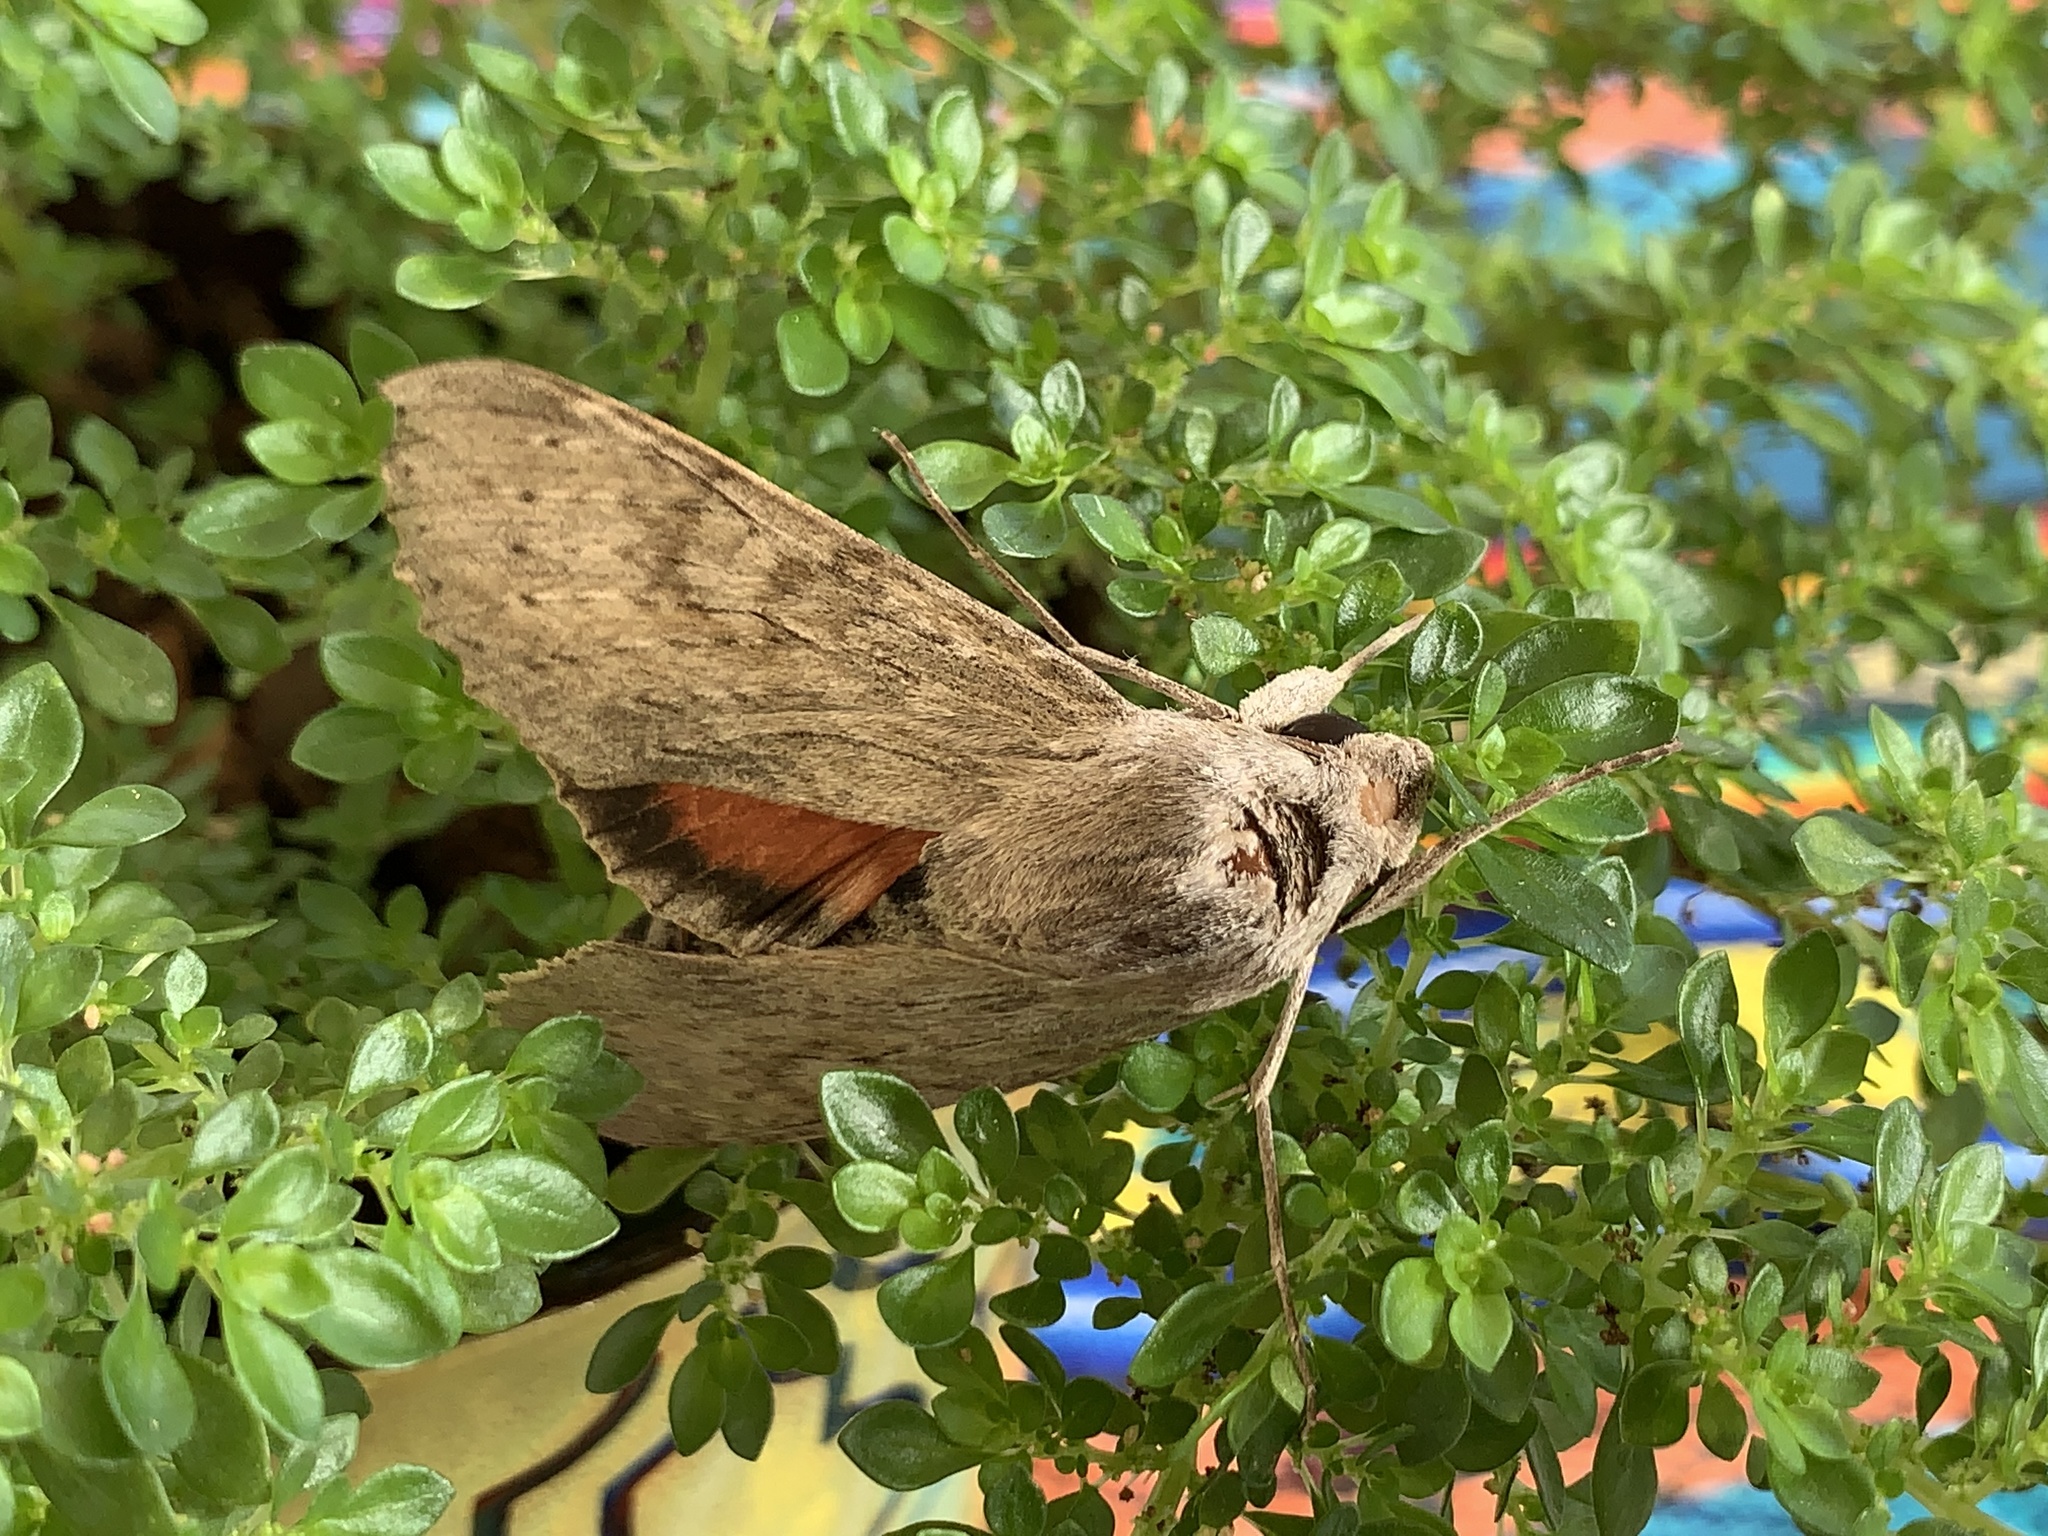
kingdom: Animalia
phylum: Arthropoda
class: Insecta
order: Lepidoptera
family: Sphingidae
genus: Erinnyis
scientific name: Erinnyis ello
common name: Ello sphinx
